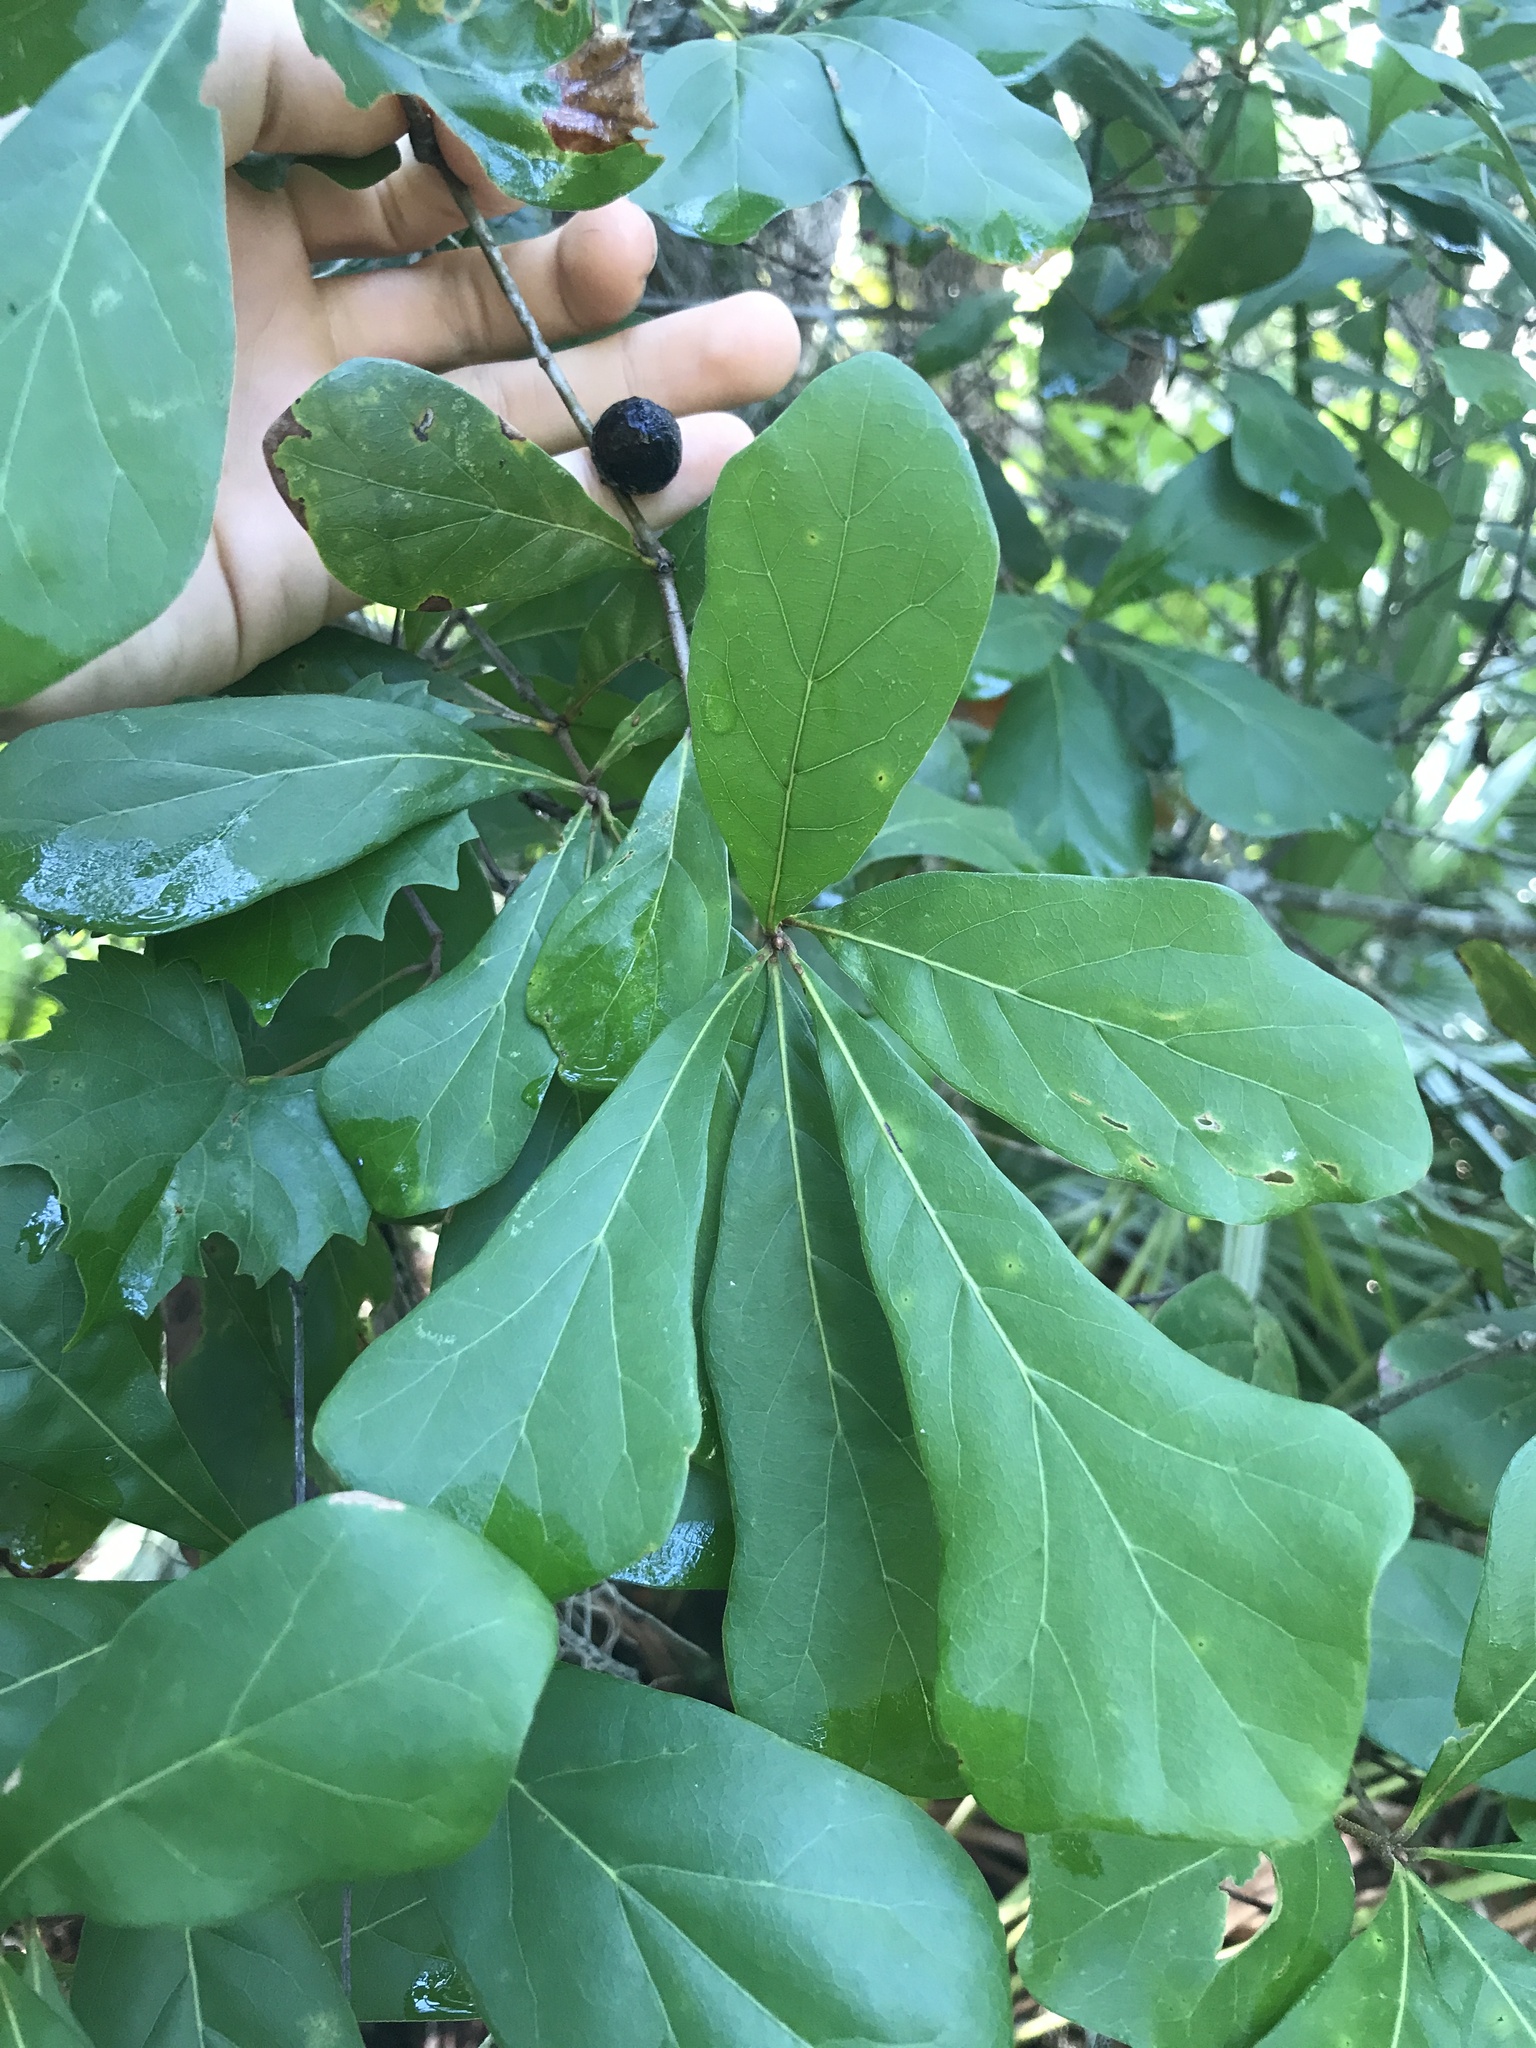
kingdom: Plantae
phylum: Tracheophyta
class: Magnoliopsida
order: Fagales
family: Fagaceae
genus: Quercus
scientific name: Quercus nigra
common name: Water oak
